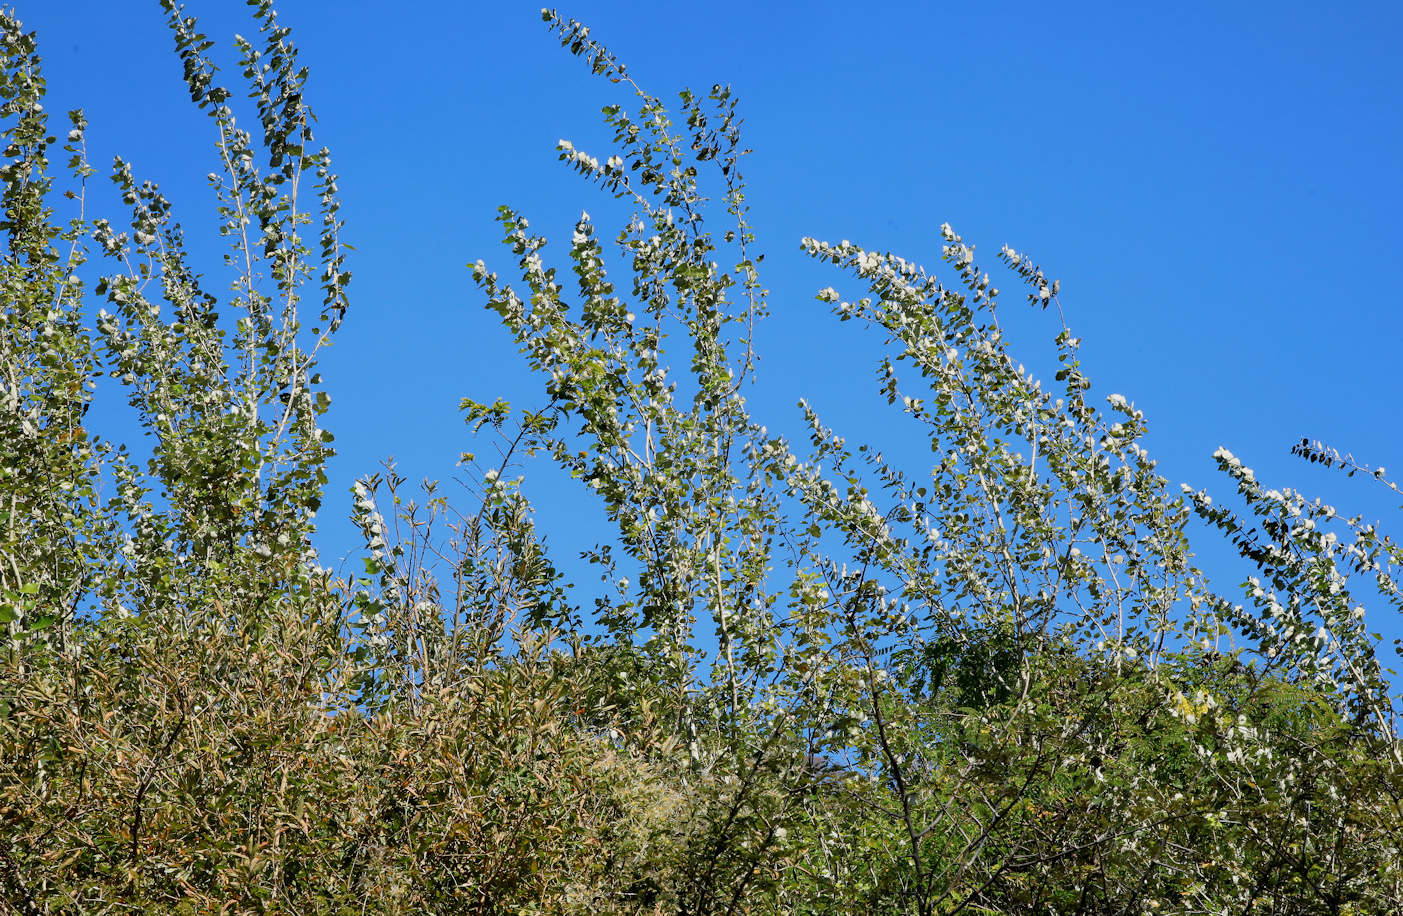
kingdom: Plantae
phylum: Tracheophyta
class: Magnoliopsida
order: Malpighiales
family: Salicaceae
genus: Populus
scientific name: Populus canescens
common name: Gray poplar
